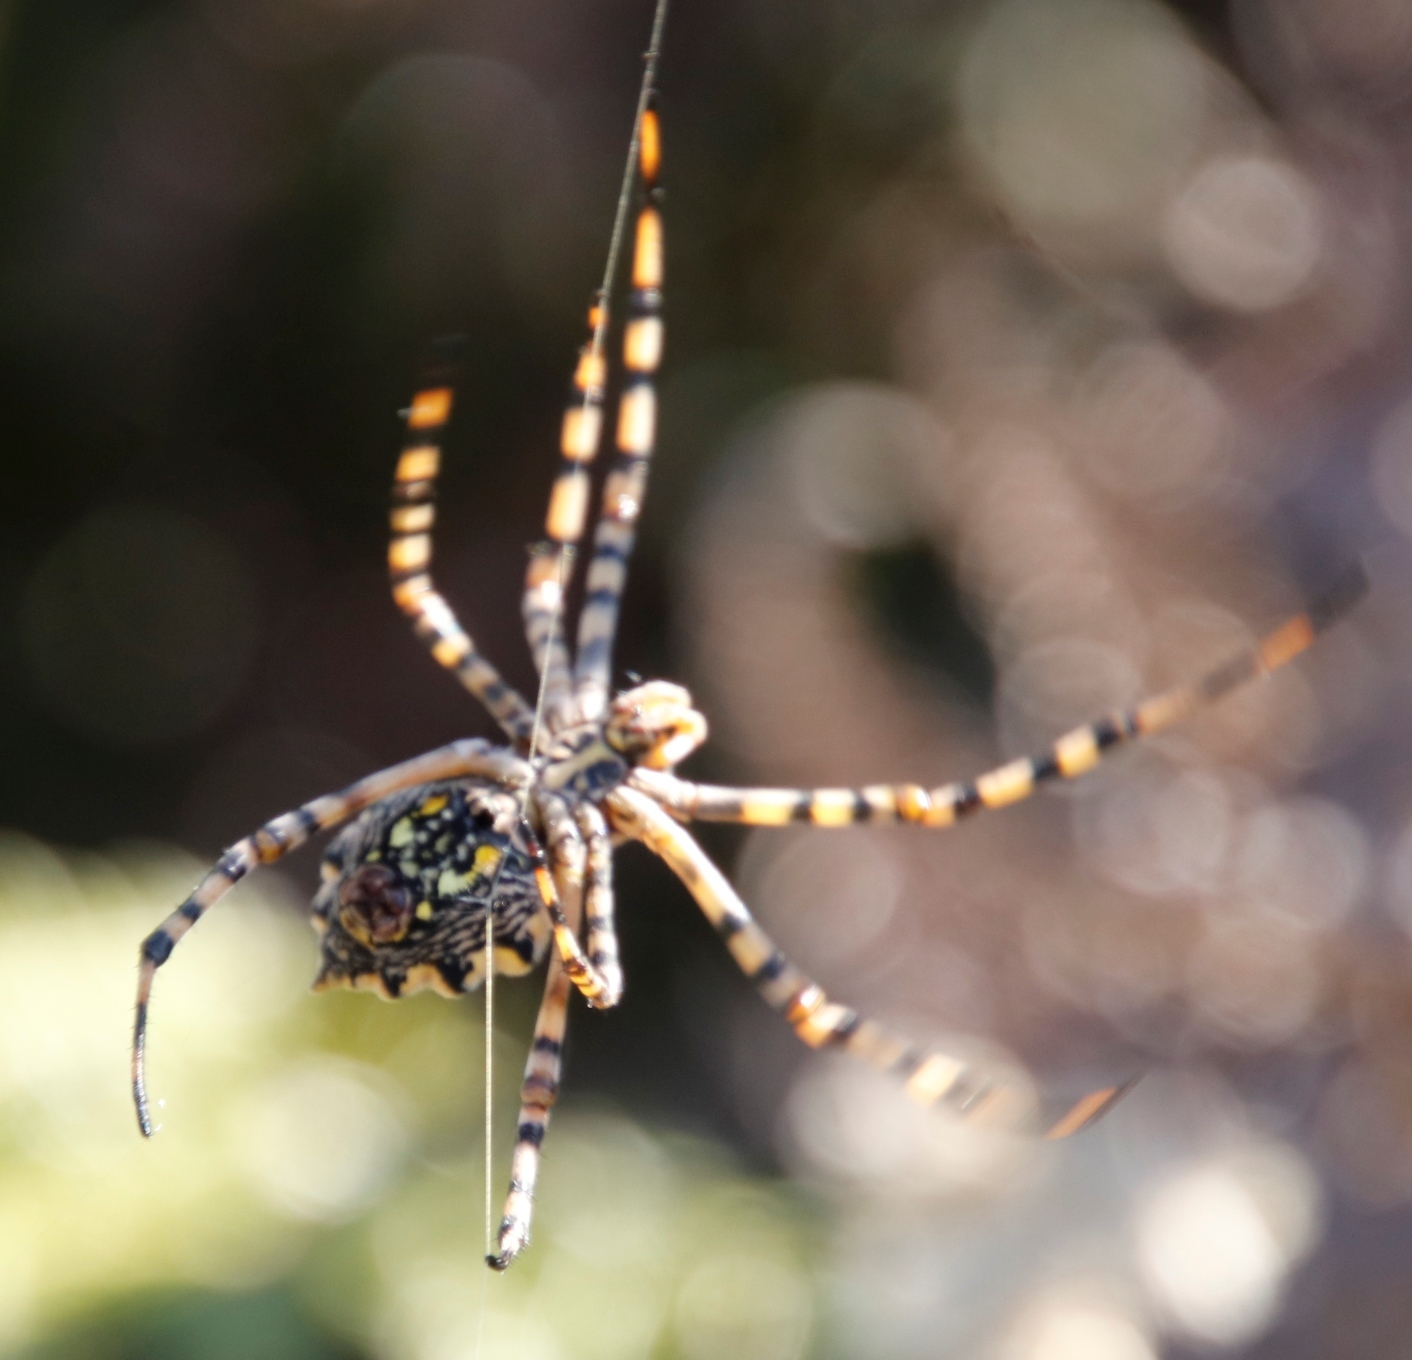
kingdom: Animalia
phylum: Arthropoda
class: Arachnida
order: Araneae
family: Araneidae
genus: Argiope
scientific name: Argiope australis
